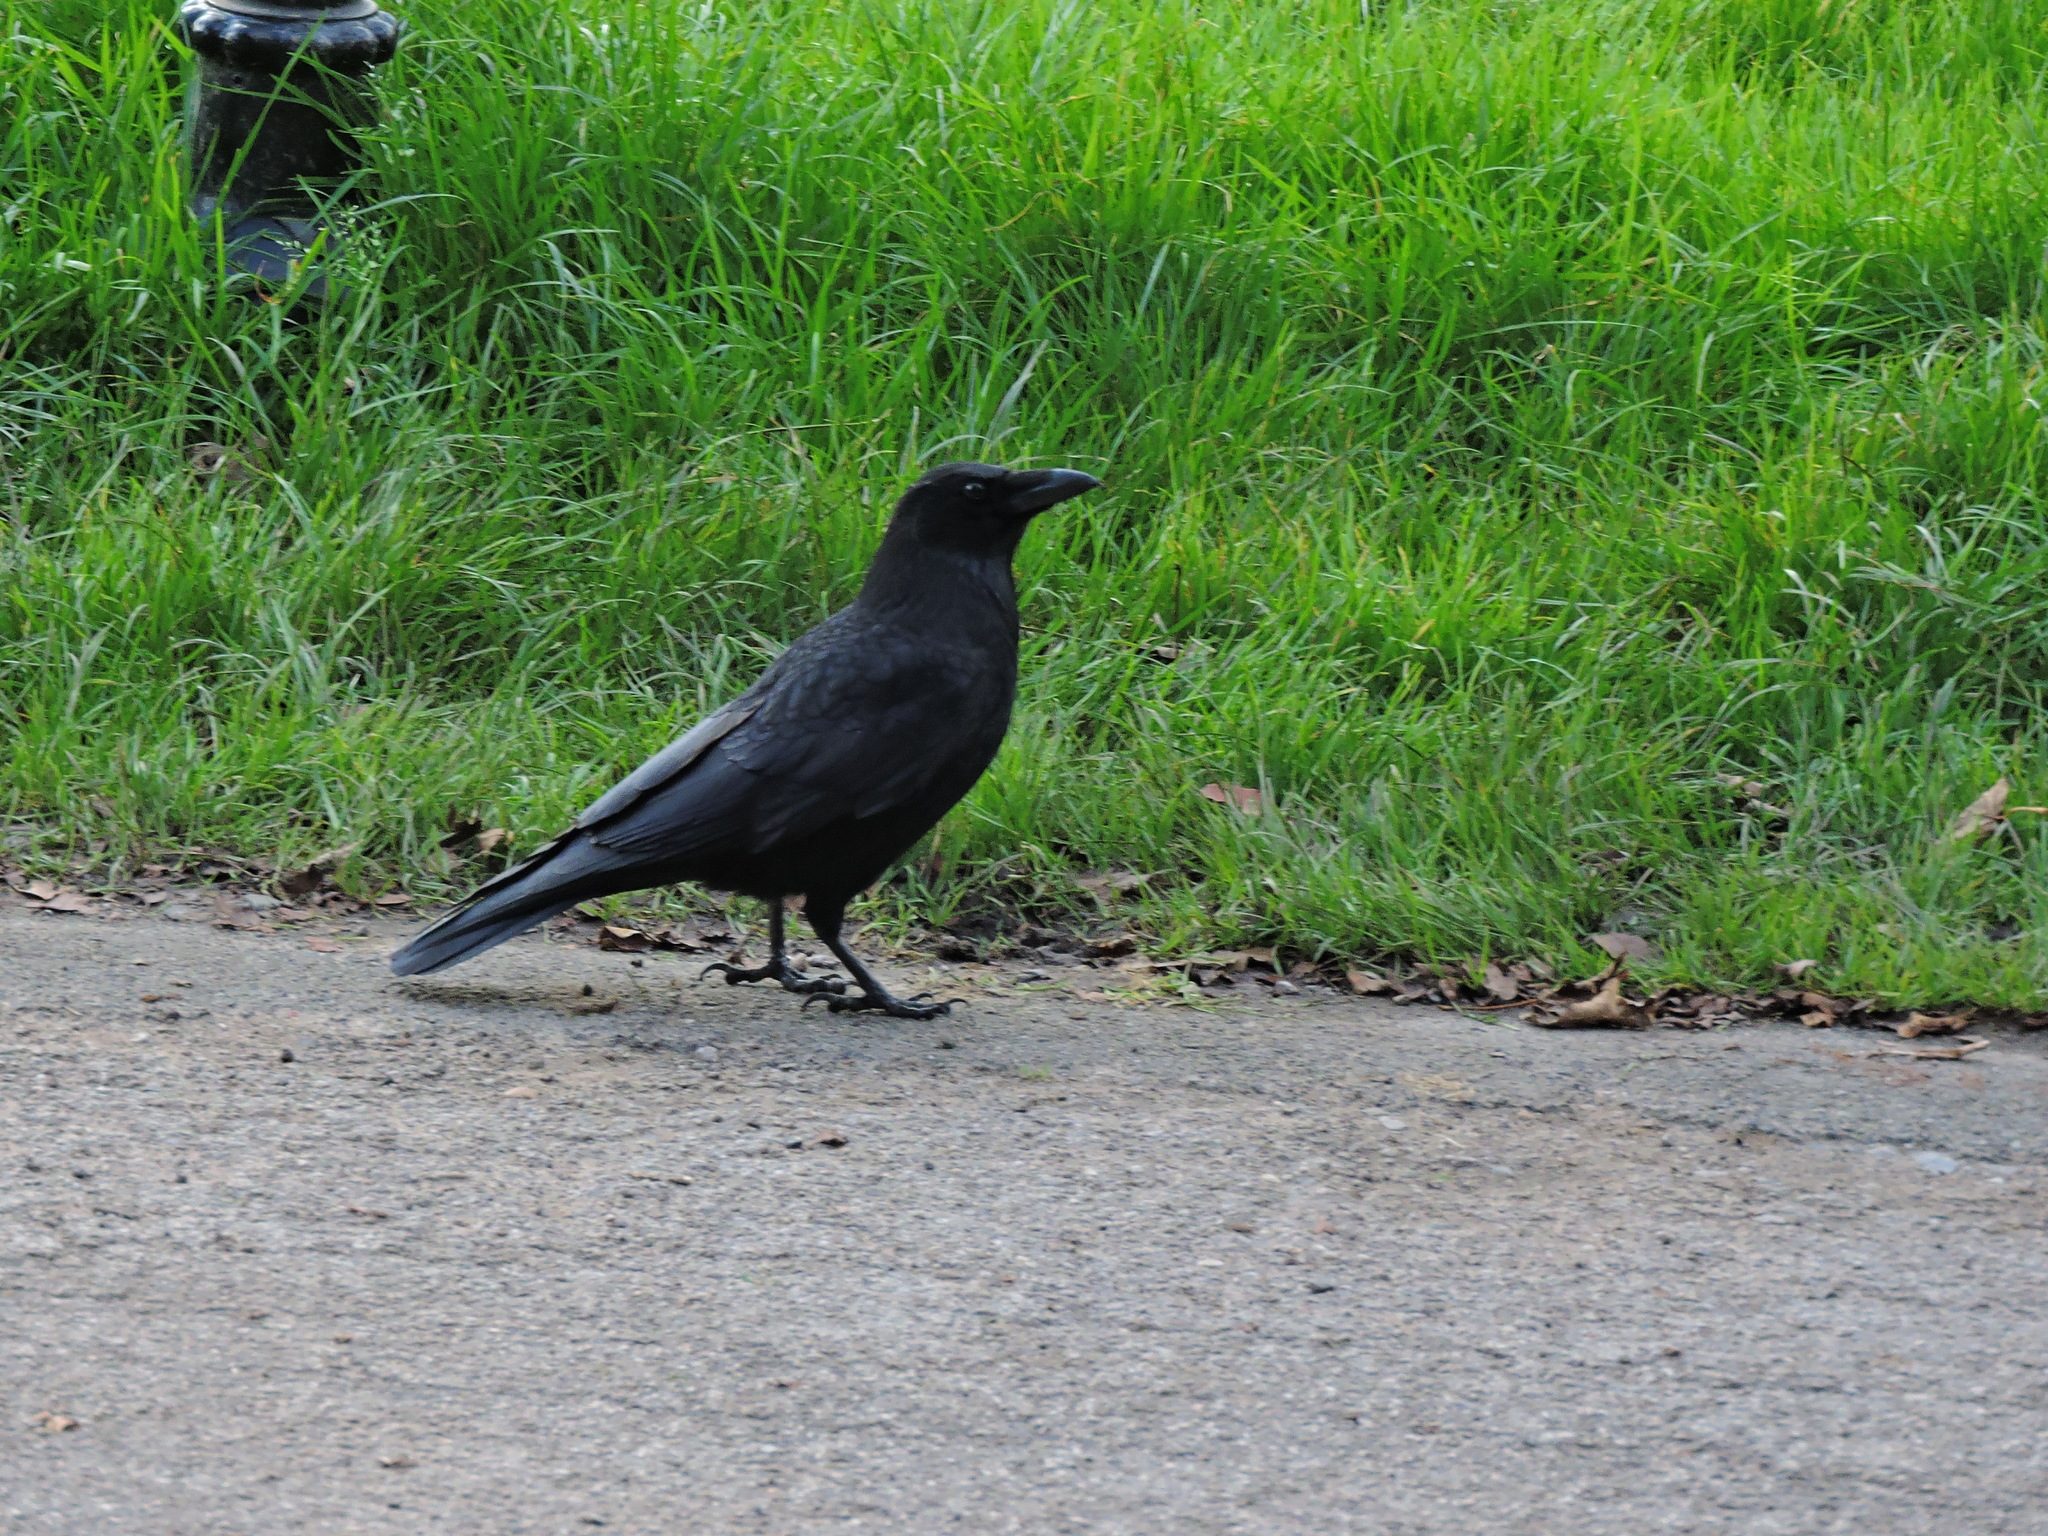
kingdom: Animalia
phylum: Chordata
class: Aves
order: Passeriformes
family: Corvidae
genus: Corvus
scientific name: Corvus corone
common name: Carrion crow
